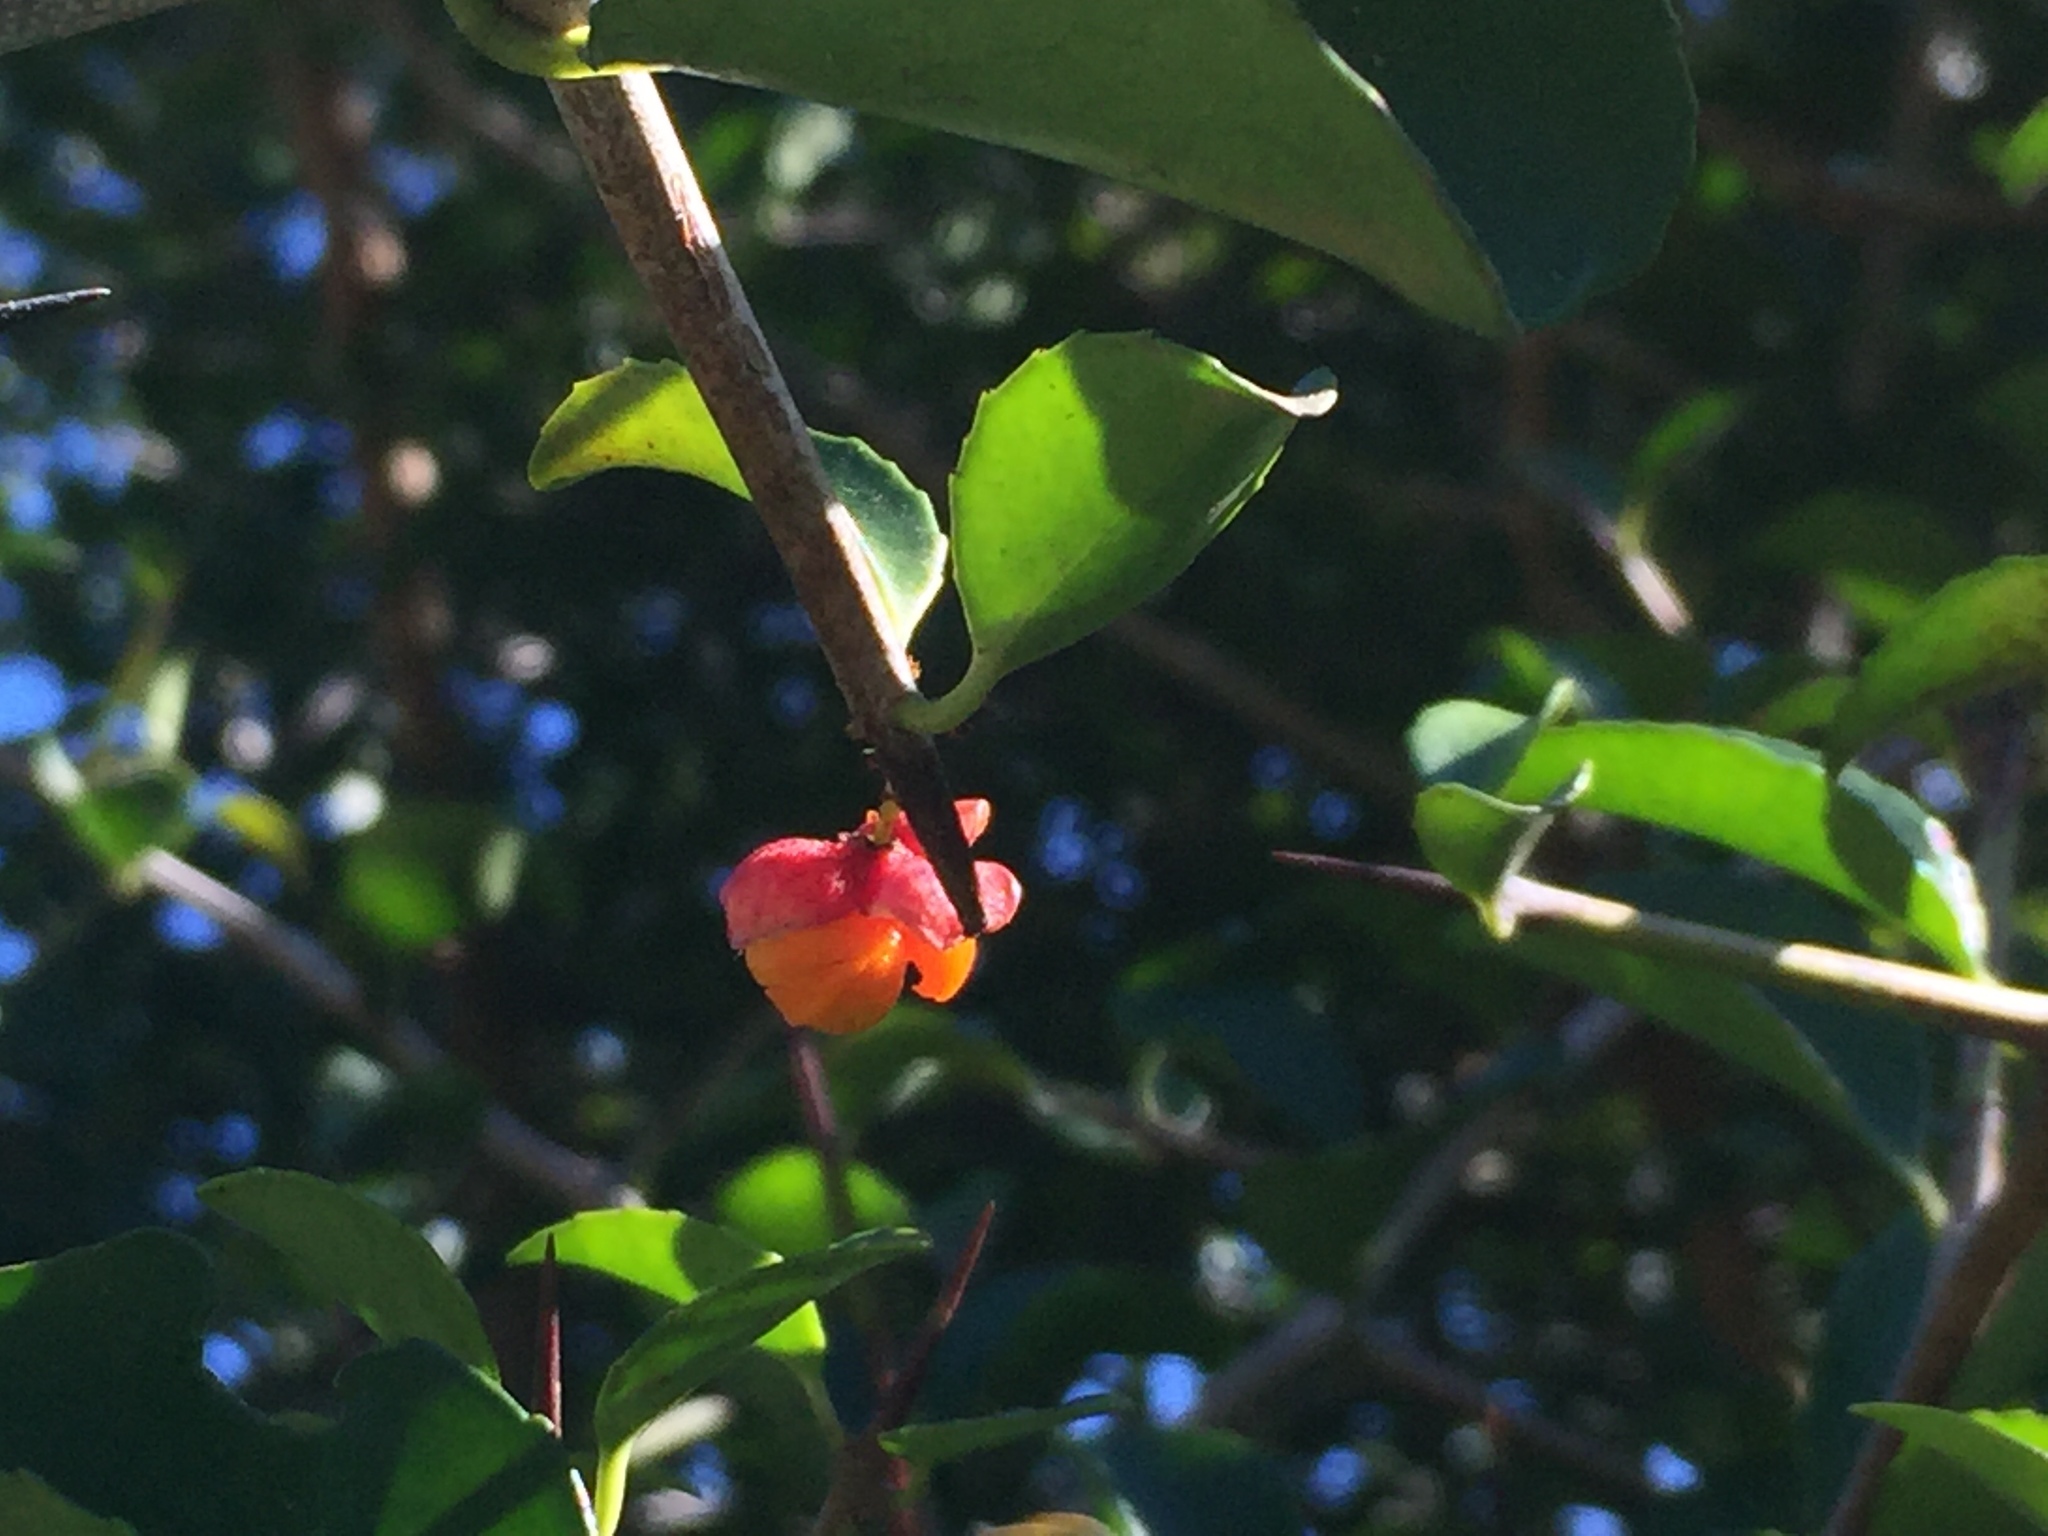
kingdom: Plantae
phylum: Tracheophyta
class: Magnoliopsida
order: Celastrales
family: Celastraceae
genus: Putterlickia
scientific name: Putterlickia pyracantha
